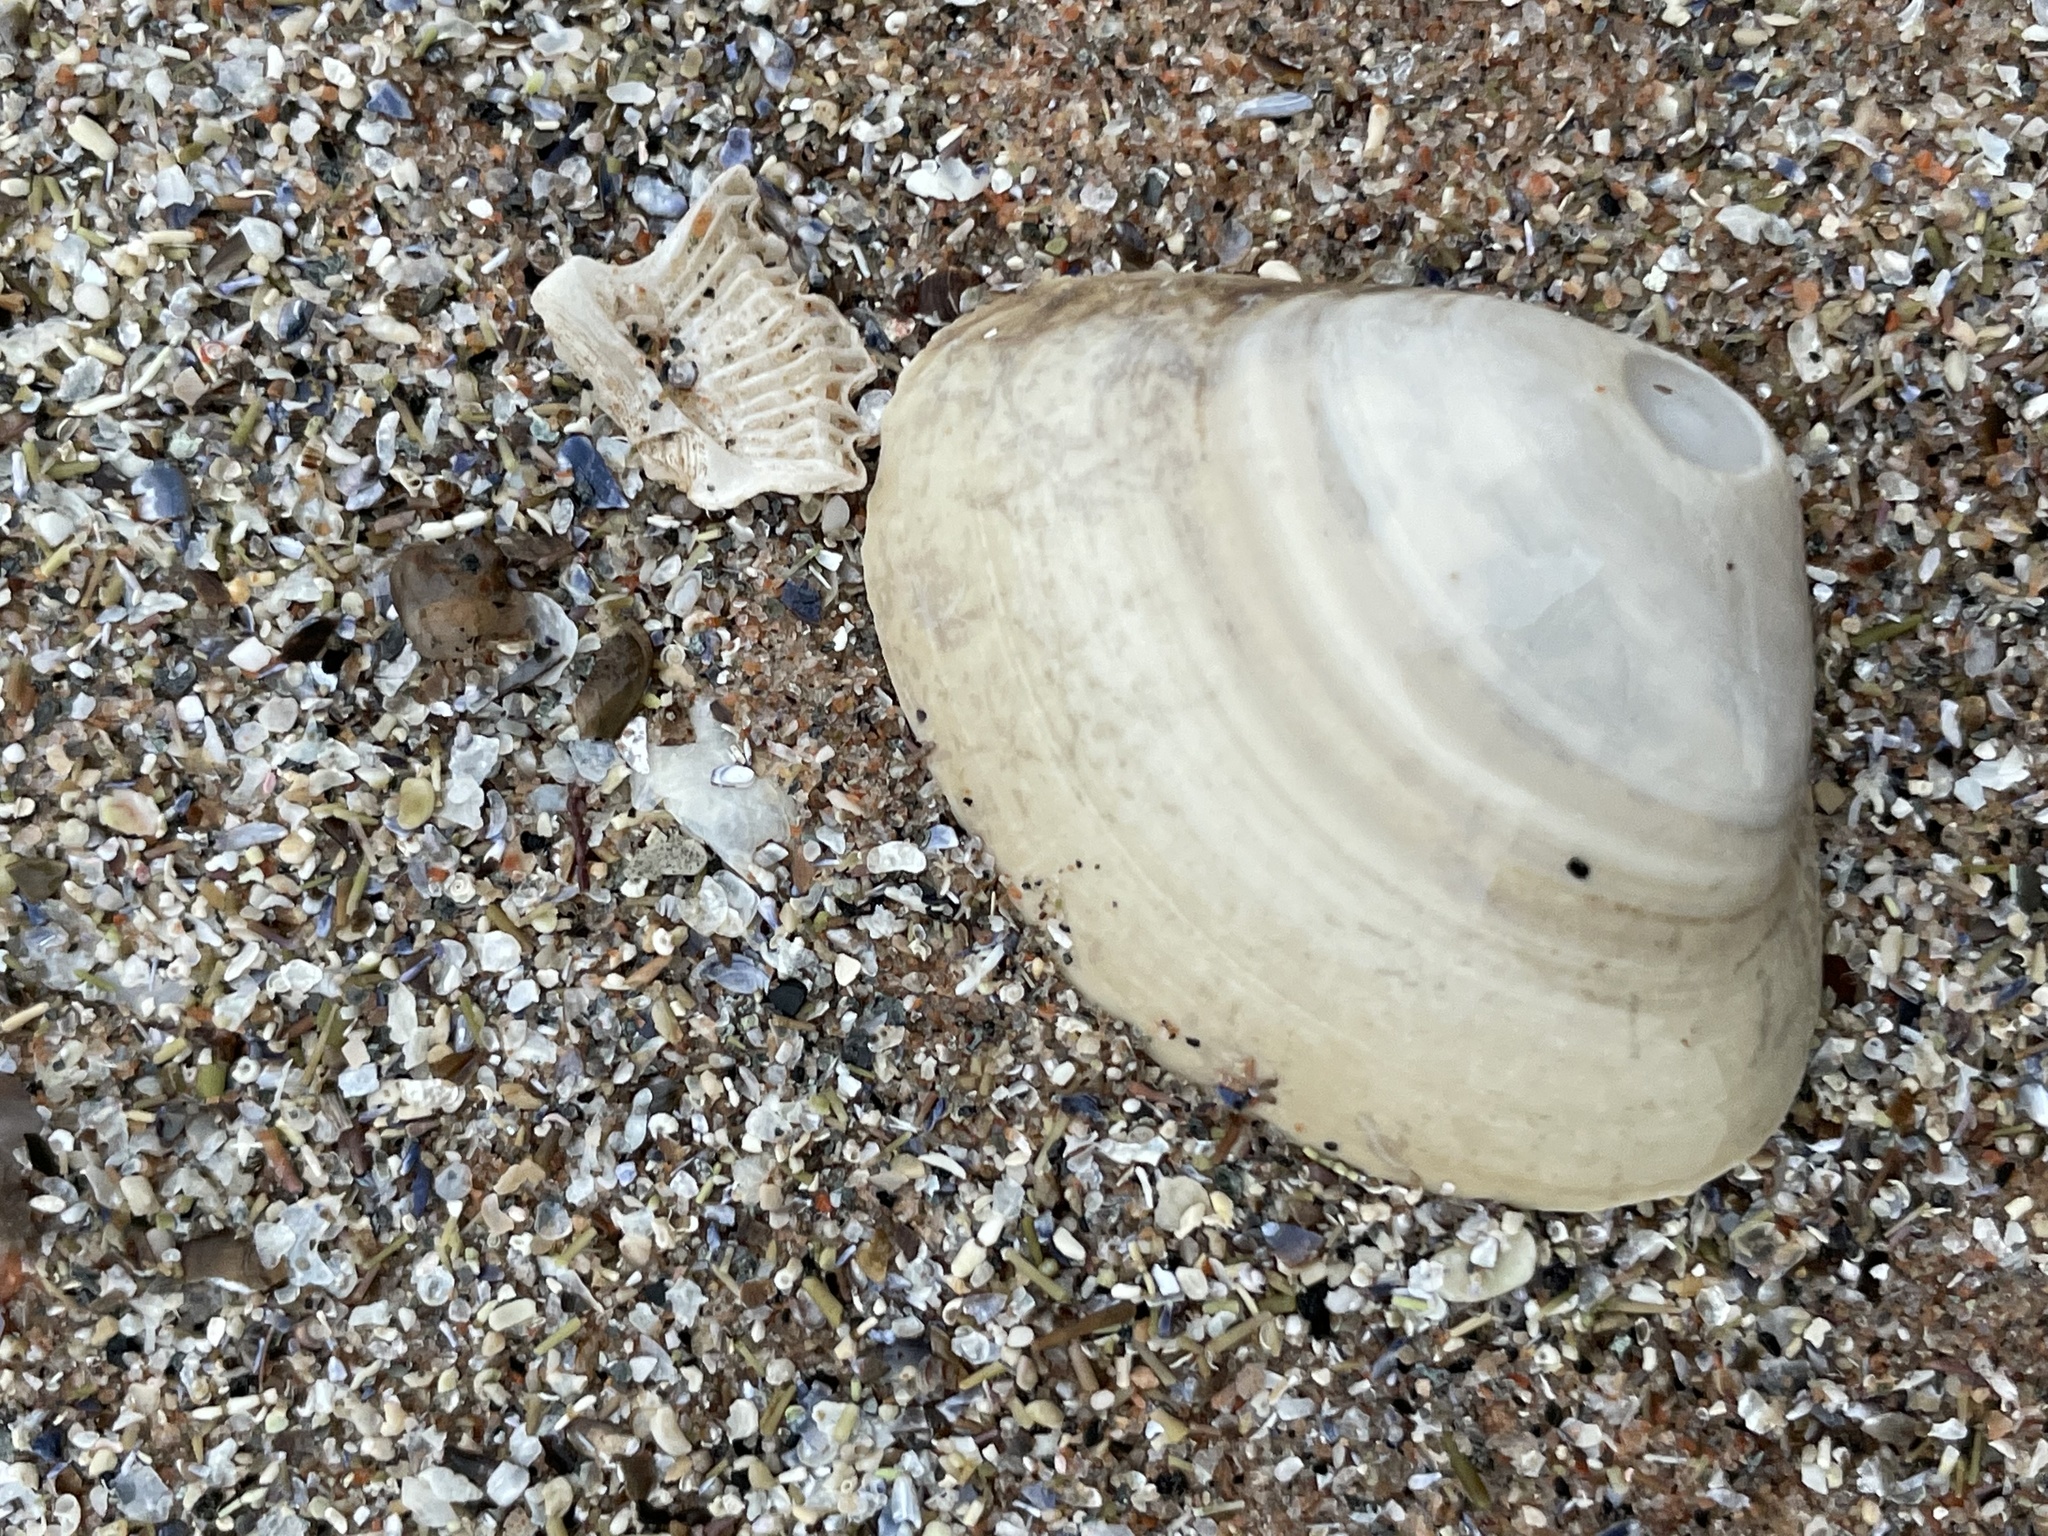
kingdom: Animalia
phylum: Mollusca
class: Bivalvia
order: Venerida
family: Mactridae
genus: Spisula
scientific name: Spisula solidissima
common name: Atlantic surf clam
